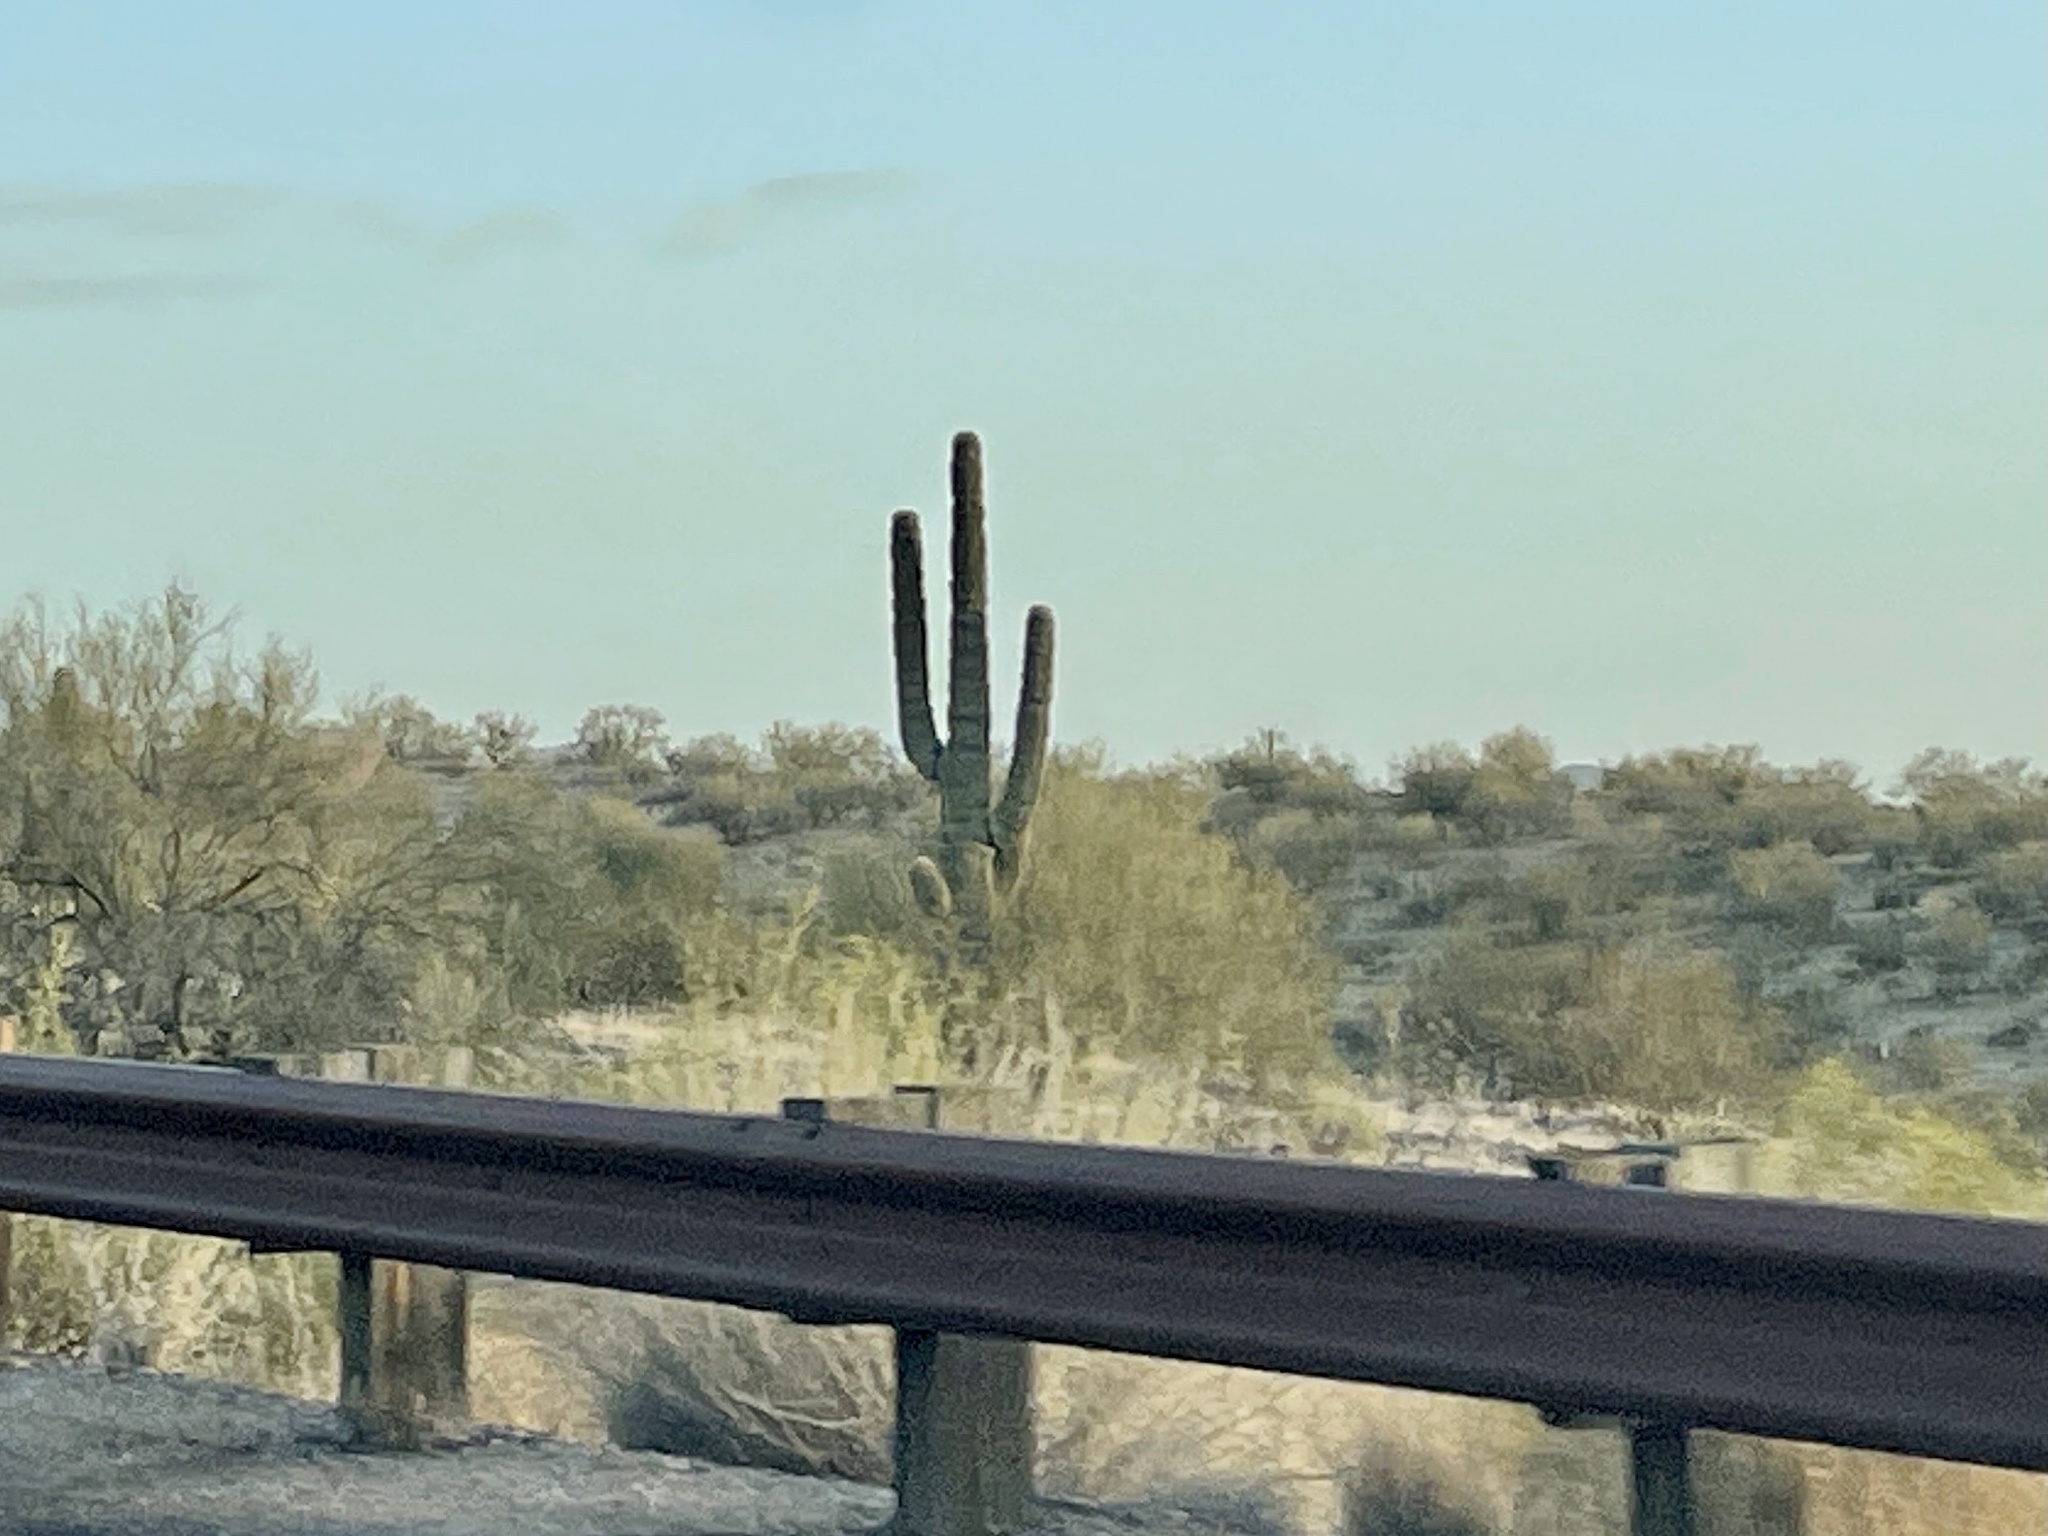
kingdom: Plantae
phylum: Tracheophyta
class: Magnoliopsida
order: Caryophyllales
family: Cactaceae
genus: Carnegiea
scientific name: Carnegiea gigantea
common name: Saguaro
